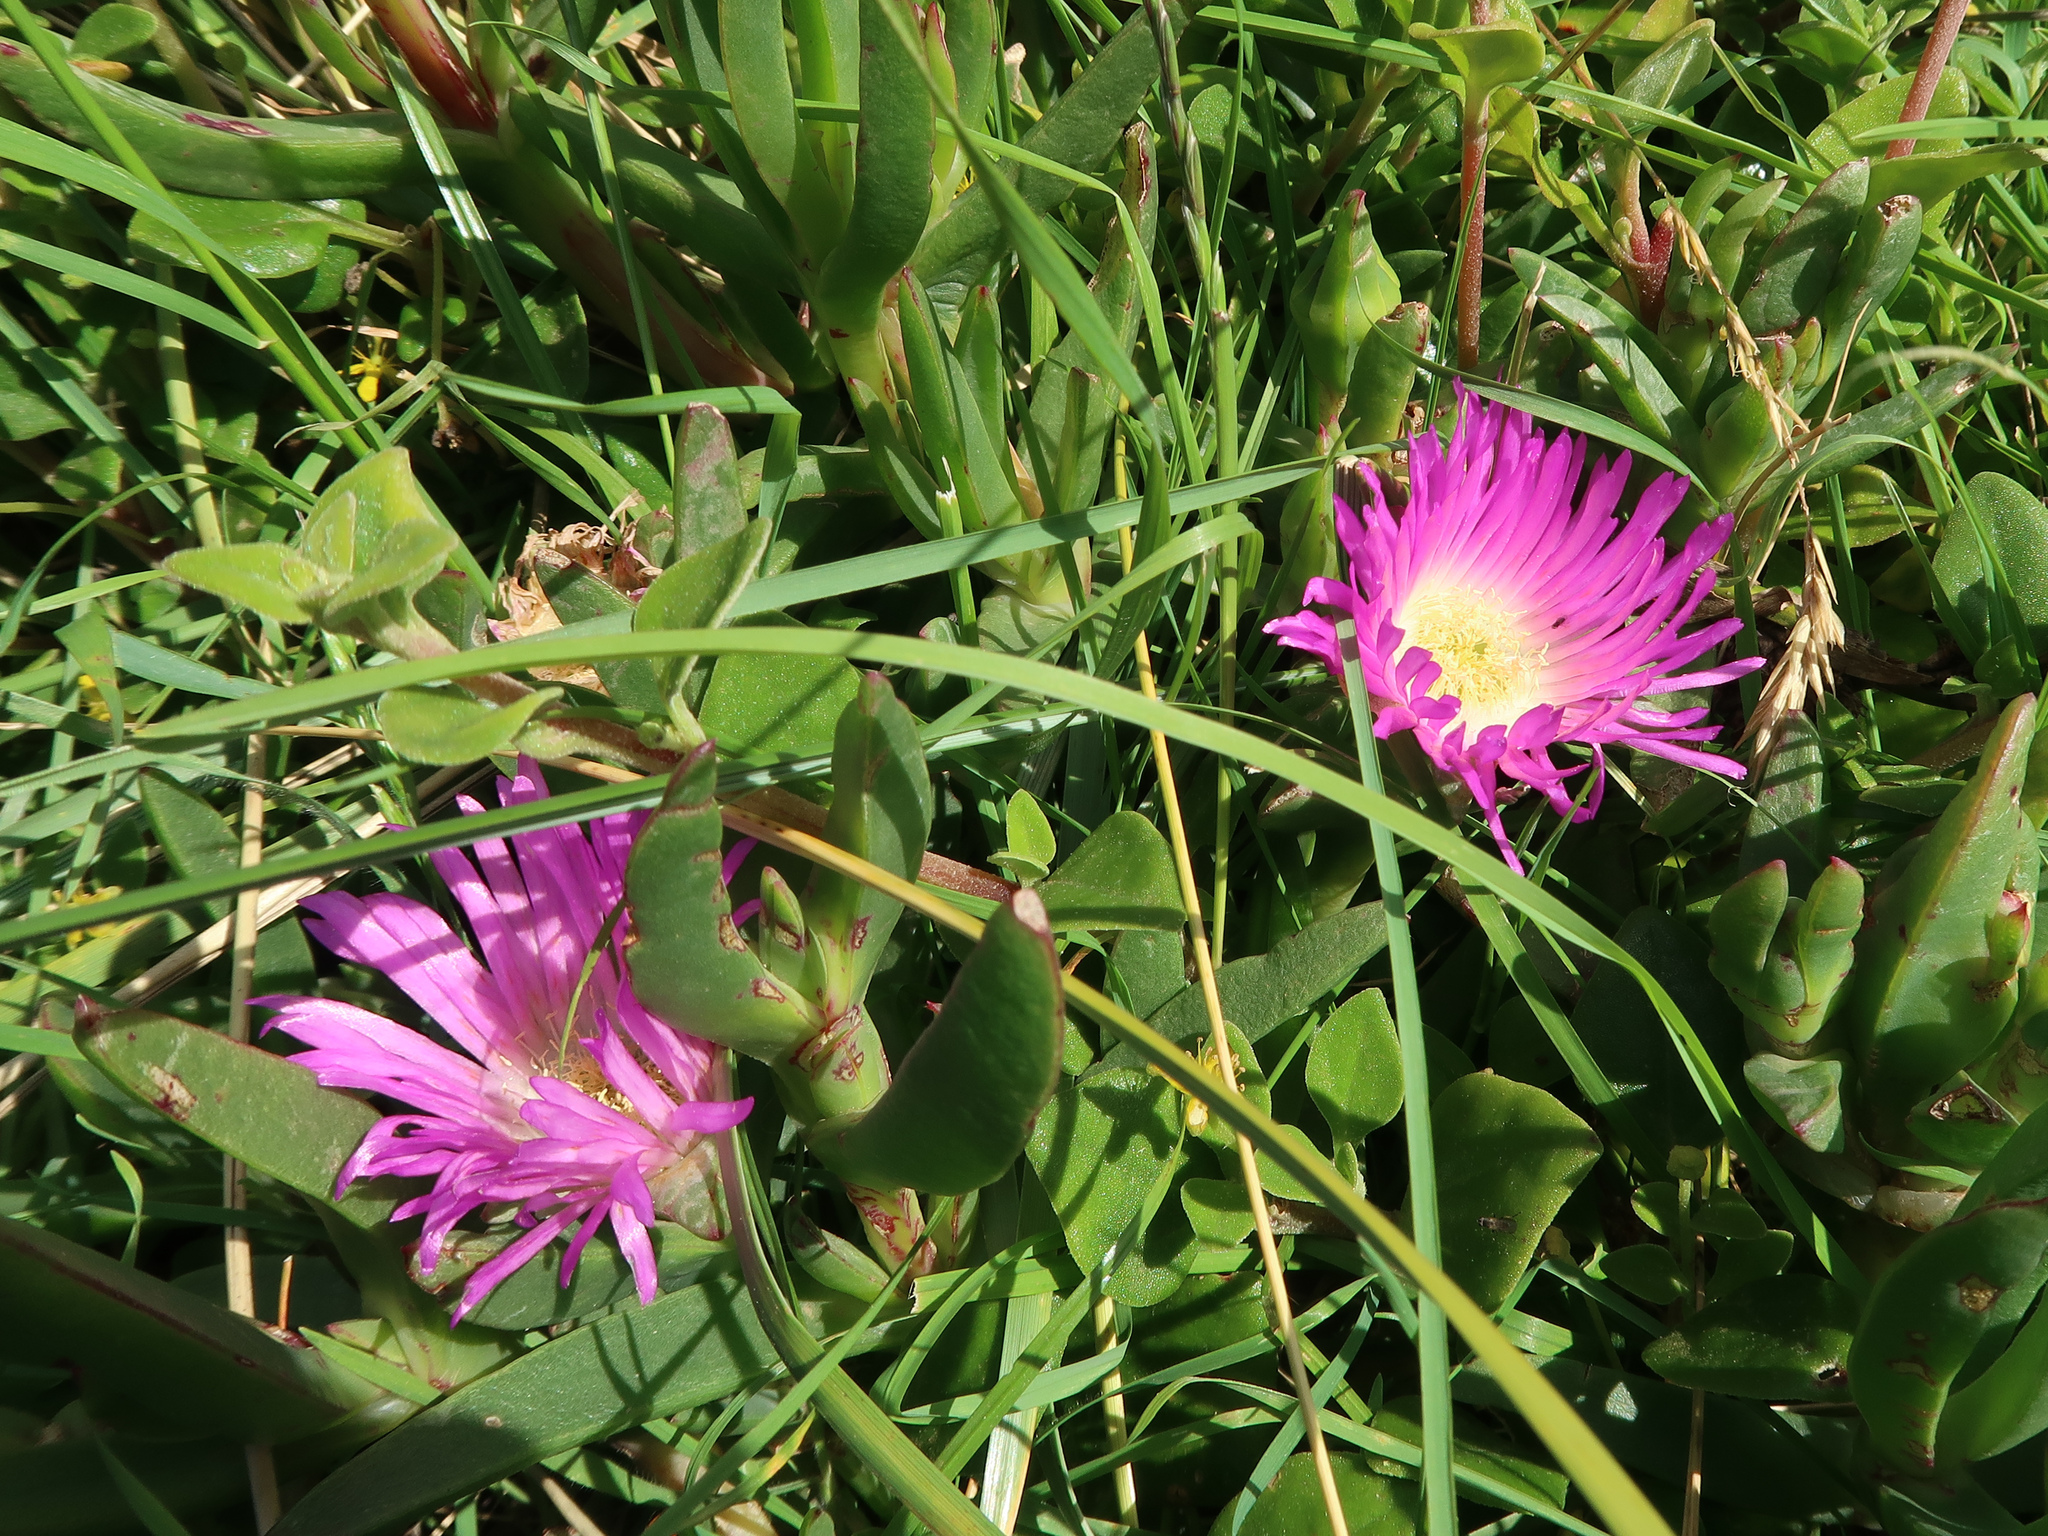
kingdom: Plantae
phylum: Tracheophyta
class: Magnoliopsida
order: Caryophyllales
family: Aizoaceae
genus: Carpobrotus
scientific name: Carpobrotus rossii
